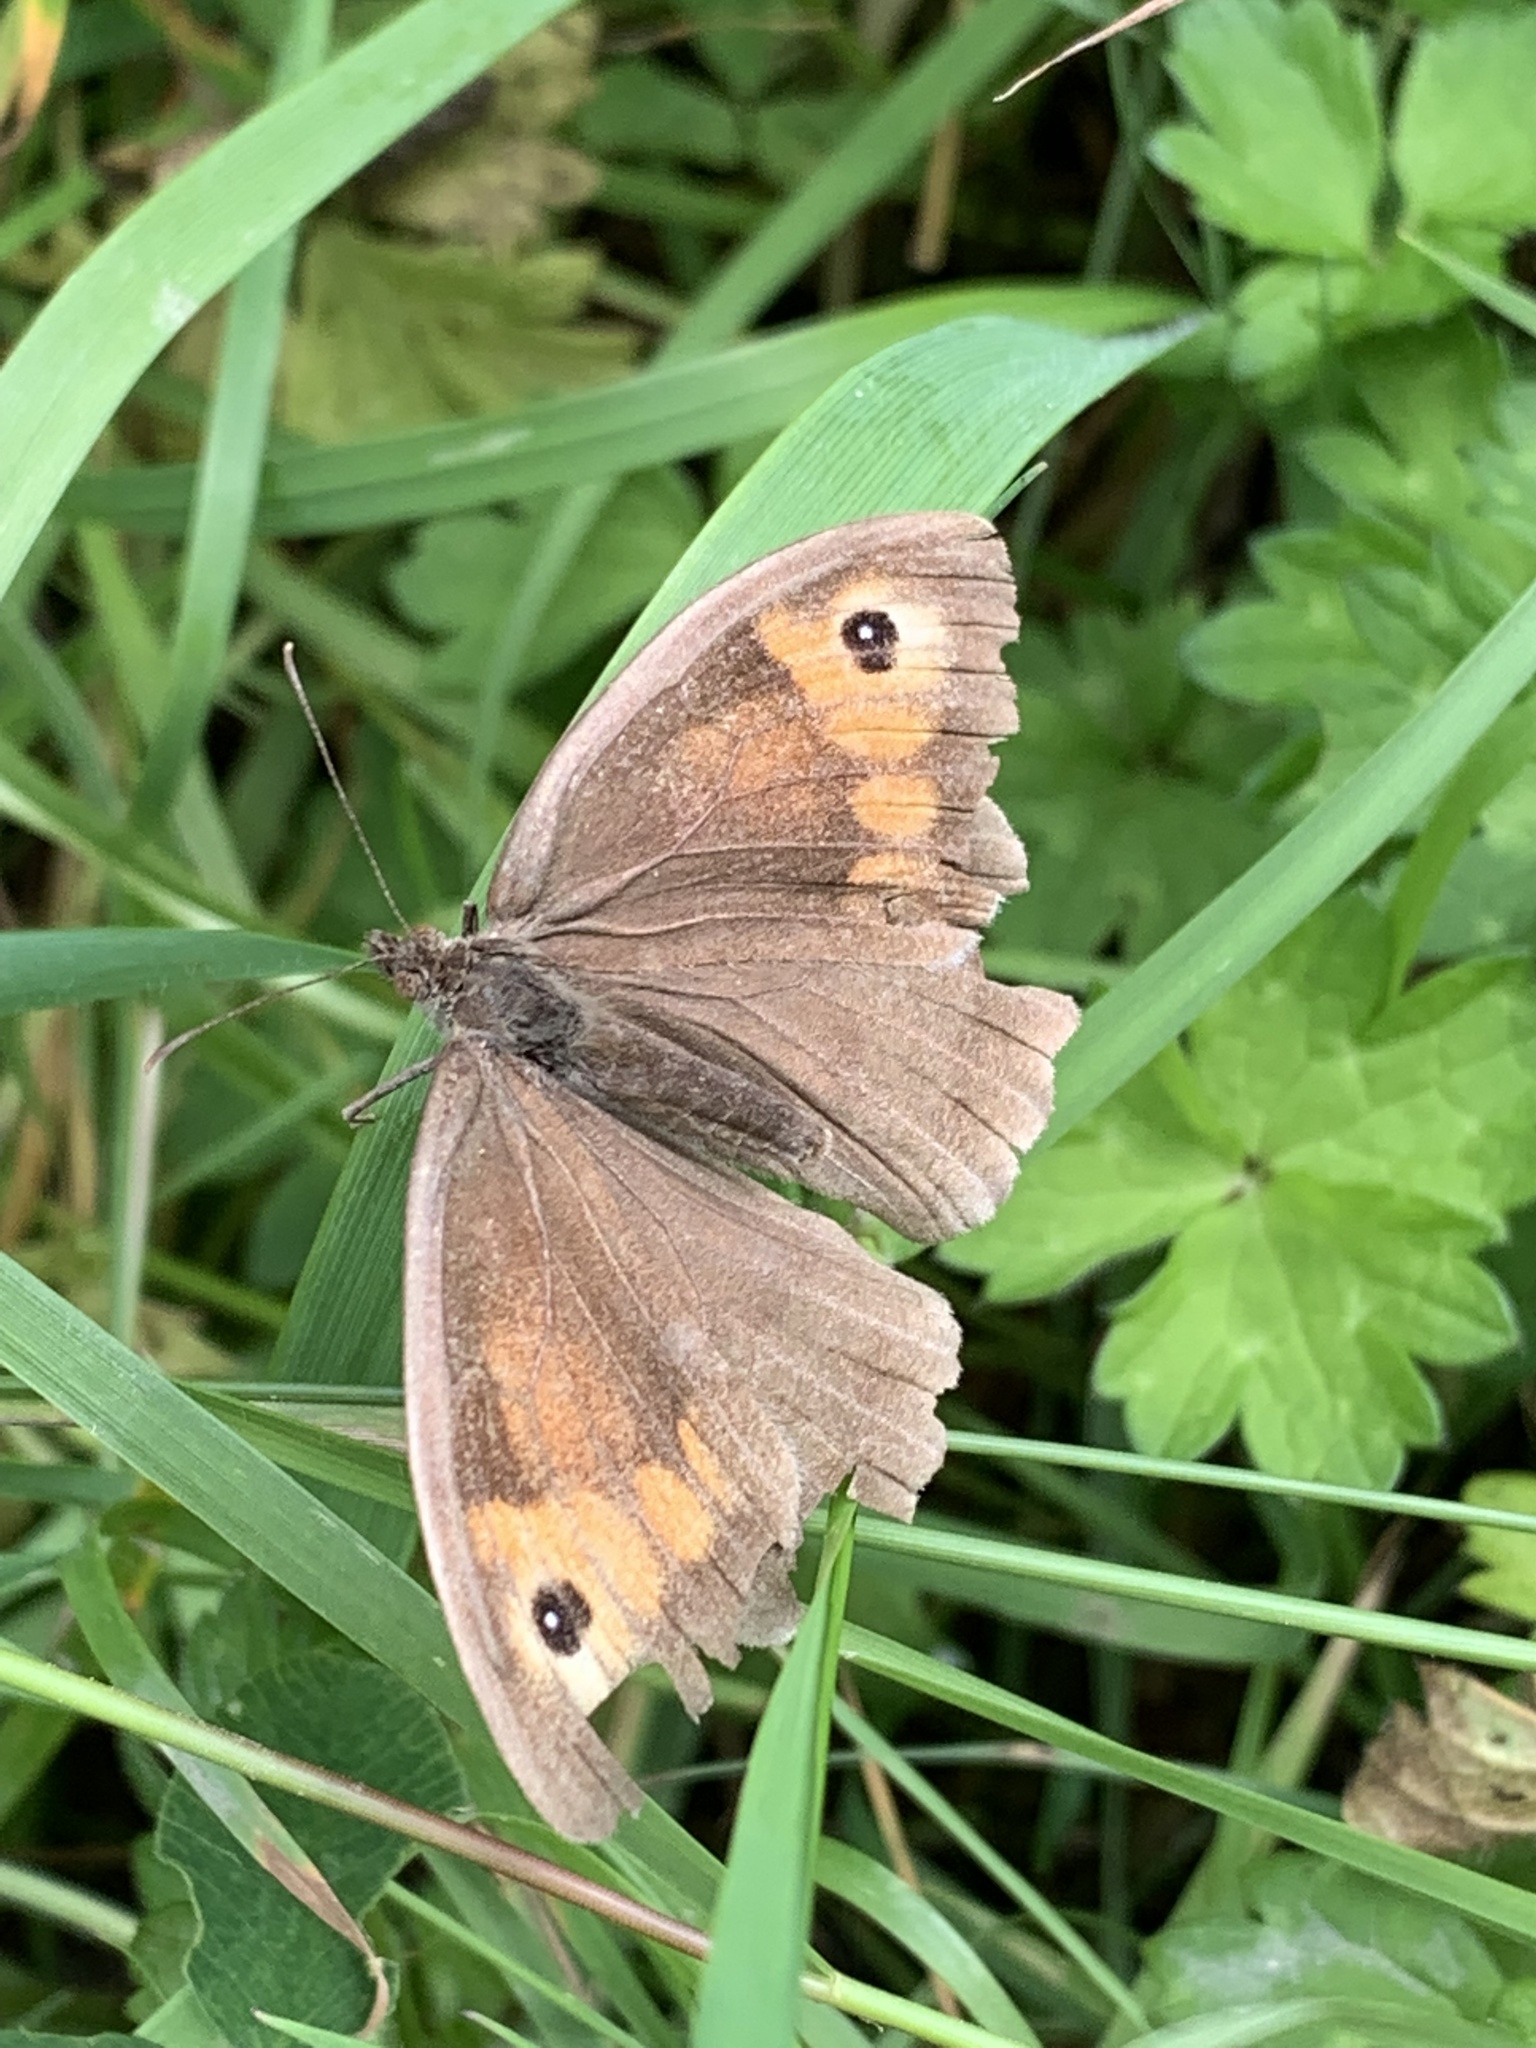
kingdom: Animalia
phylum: Arthropoda
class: Insecta
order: Lepidoptera
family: Nymphalidae
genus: Maniola
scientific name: Maniola jurtina
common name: Meadow brown
